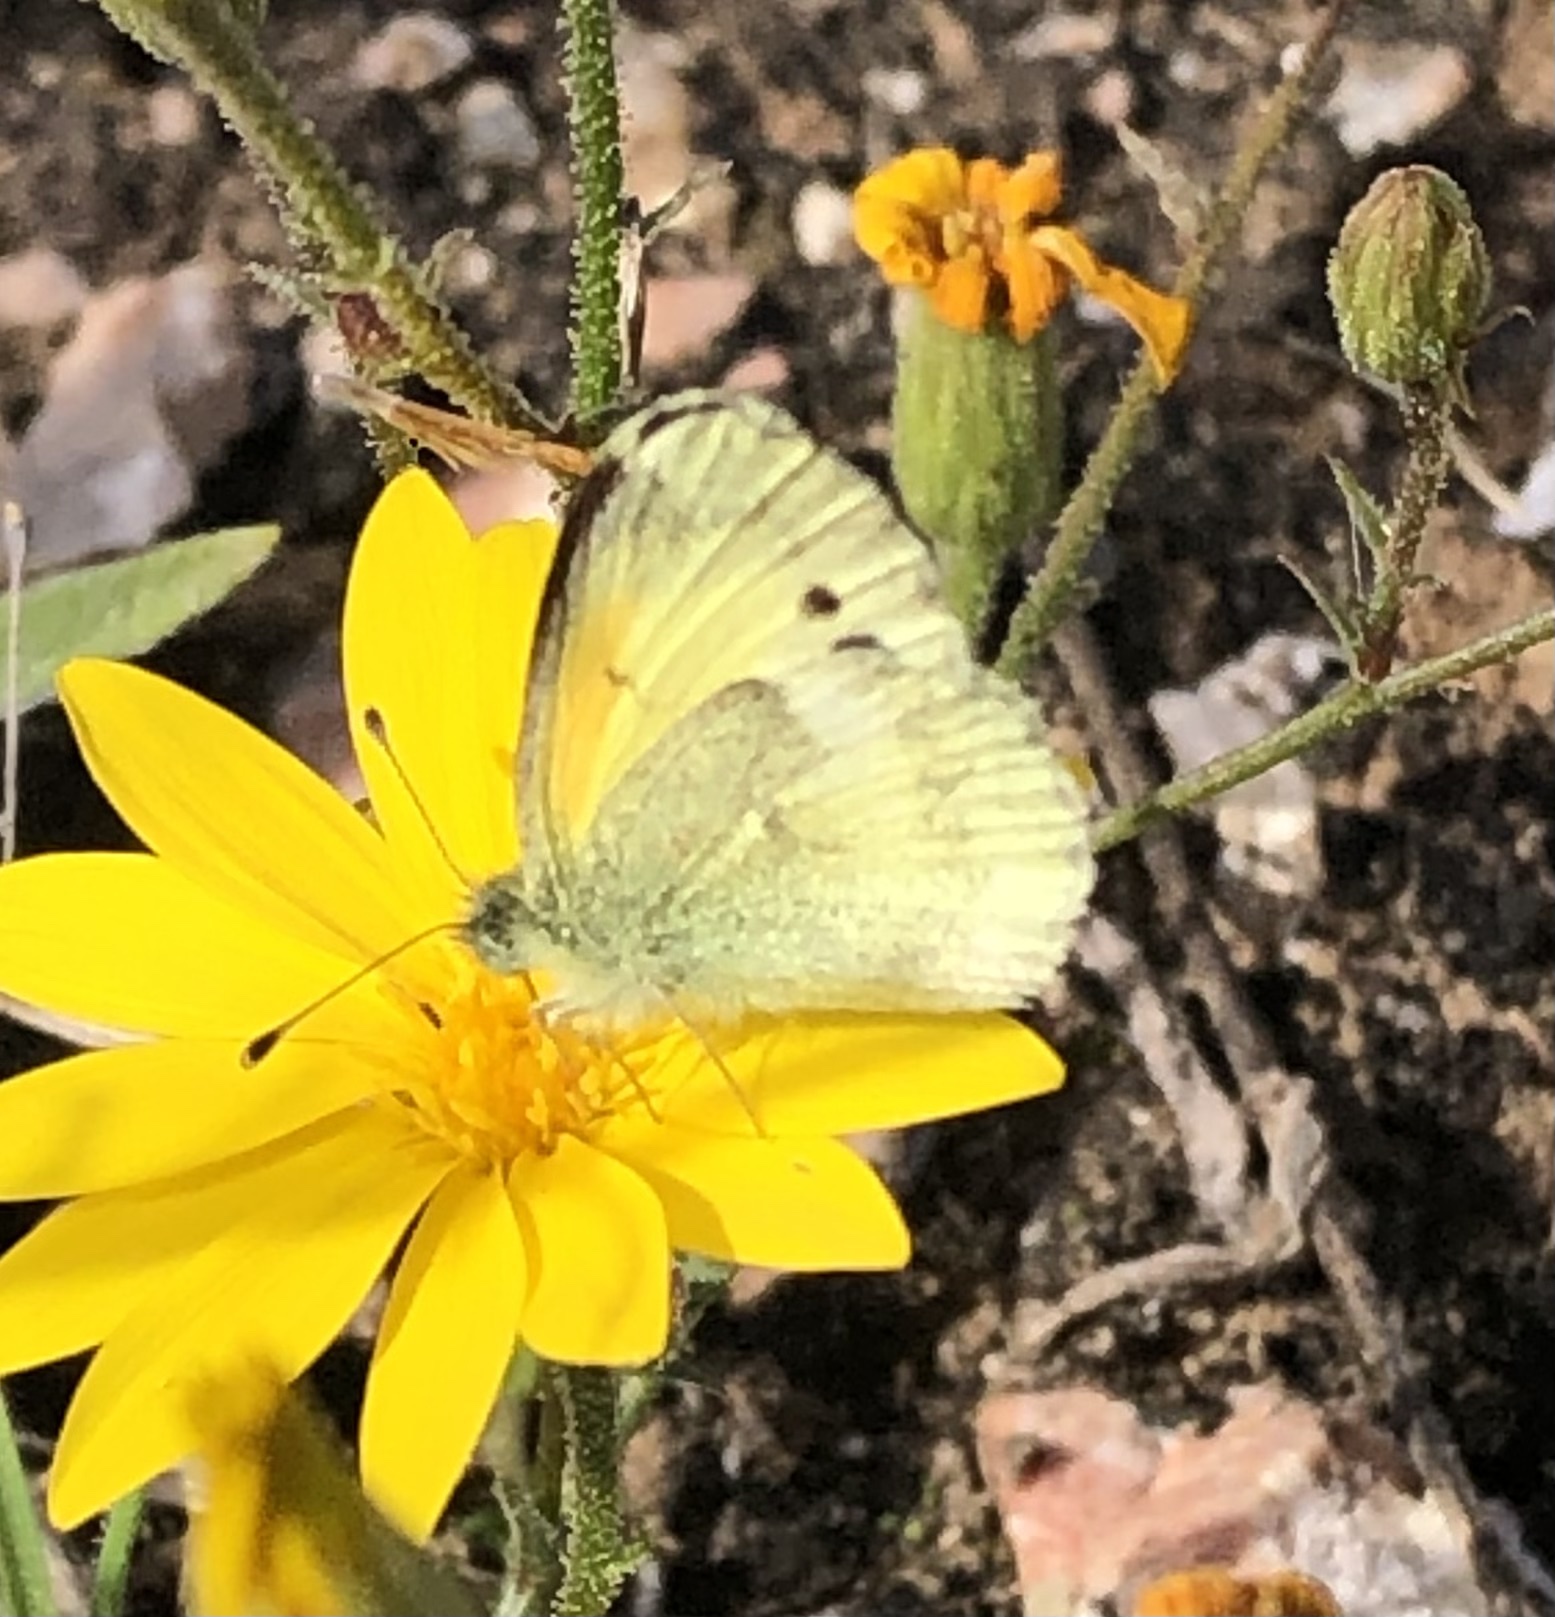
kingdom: Animalia
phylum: Arthropoda
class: Insecta
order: Lepidoptera
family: Pieridae
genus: Nathalis
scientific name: Nathalis iole
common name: Dainty sulphur
